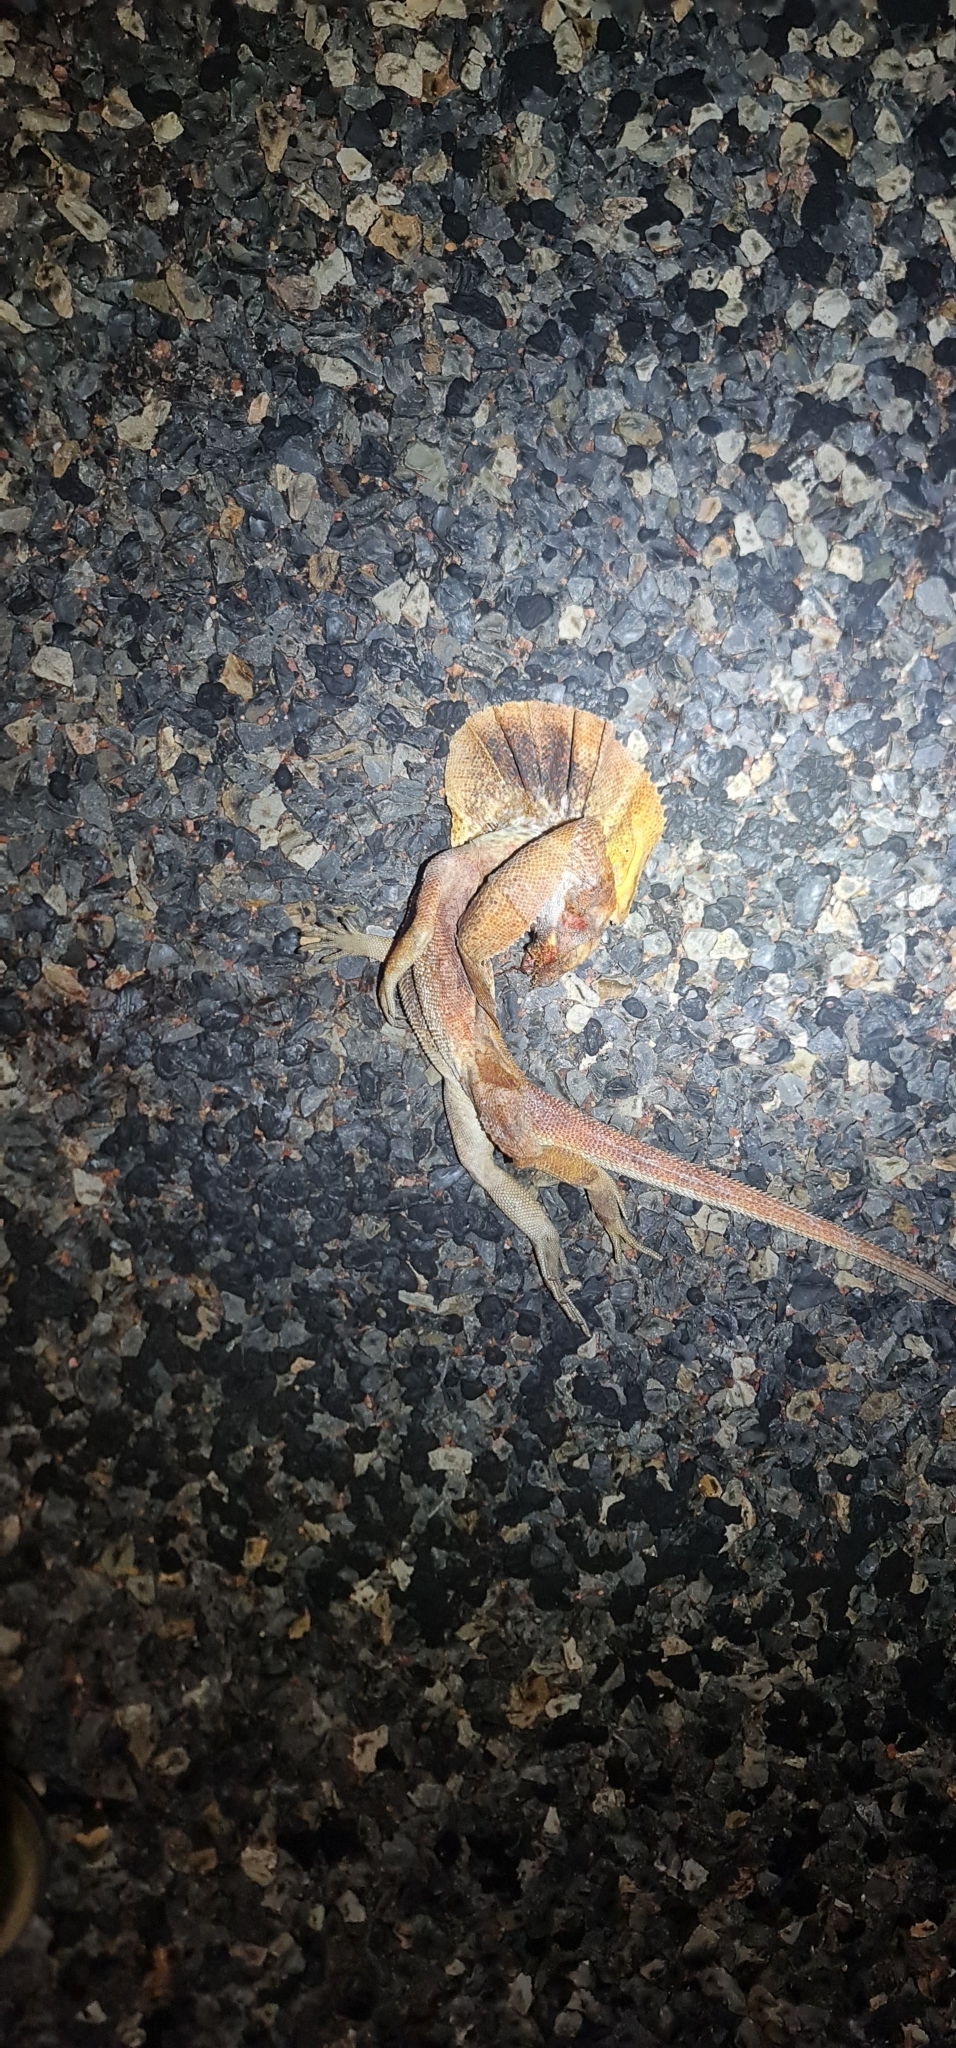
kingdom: Animalia
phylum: Chordata
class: Squamata
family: Agamidae
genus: Chlamydosaurus
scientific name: Chlamydosaurus kingii
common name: Frilled lizard
